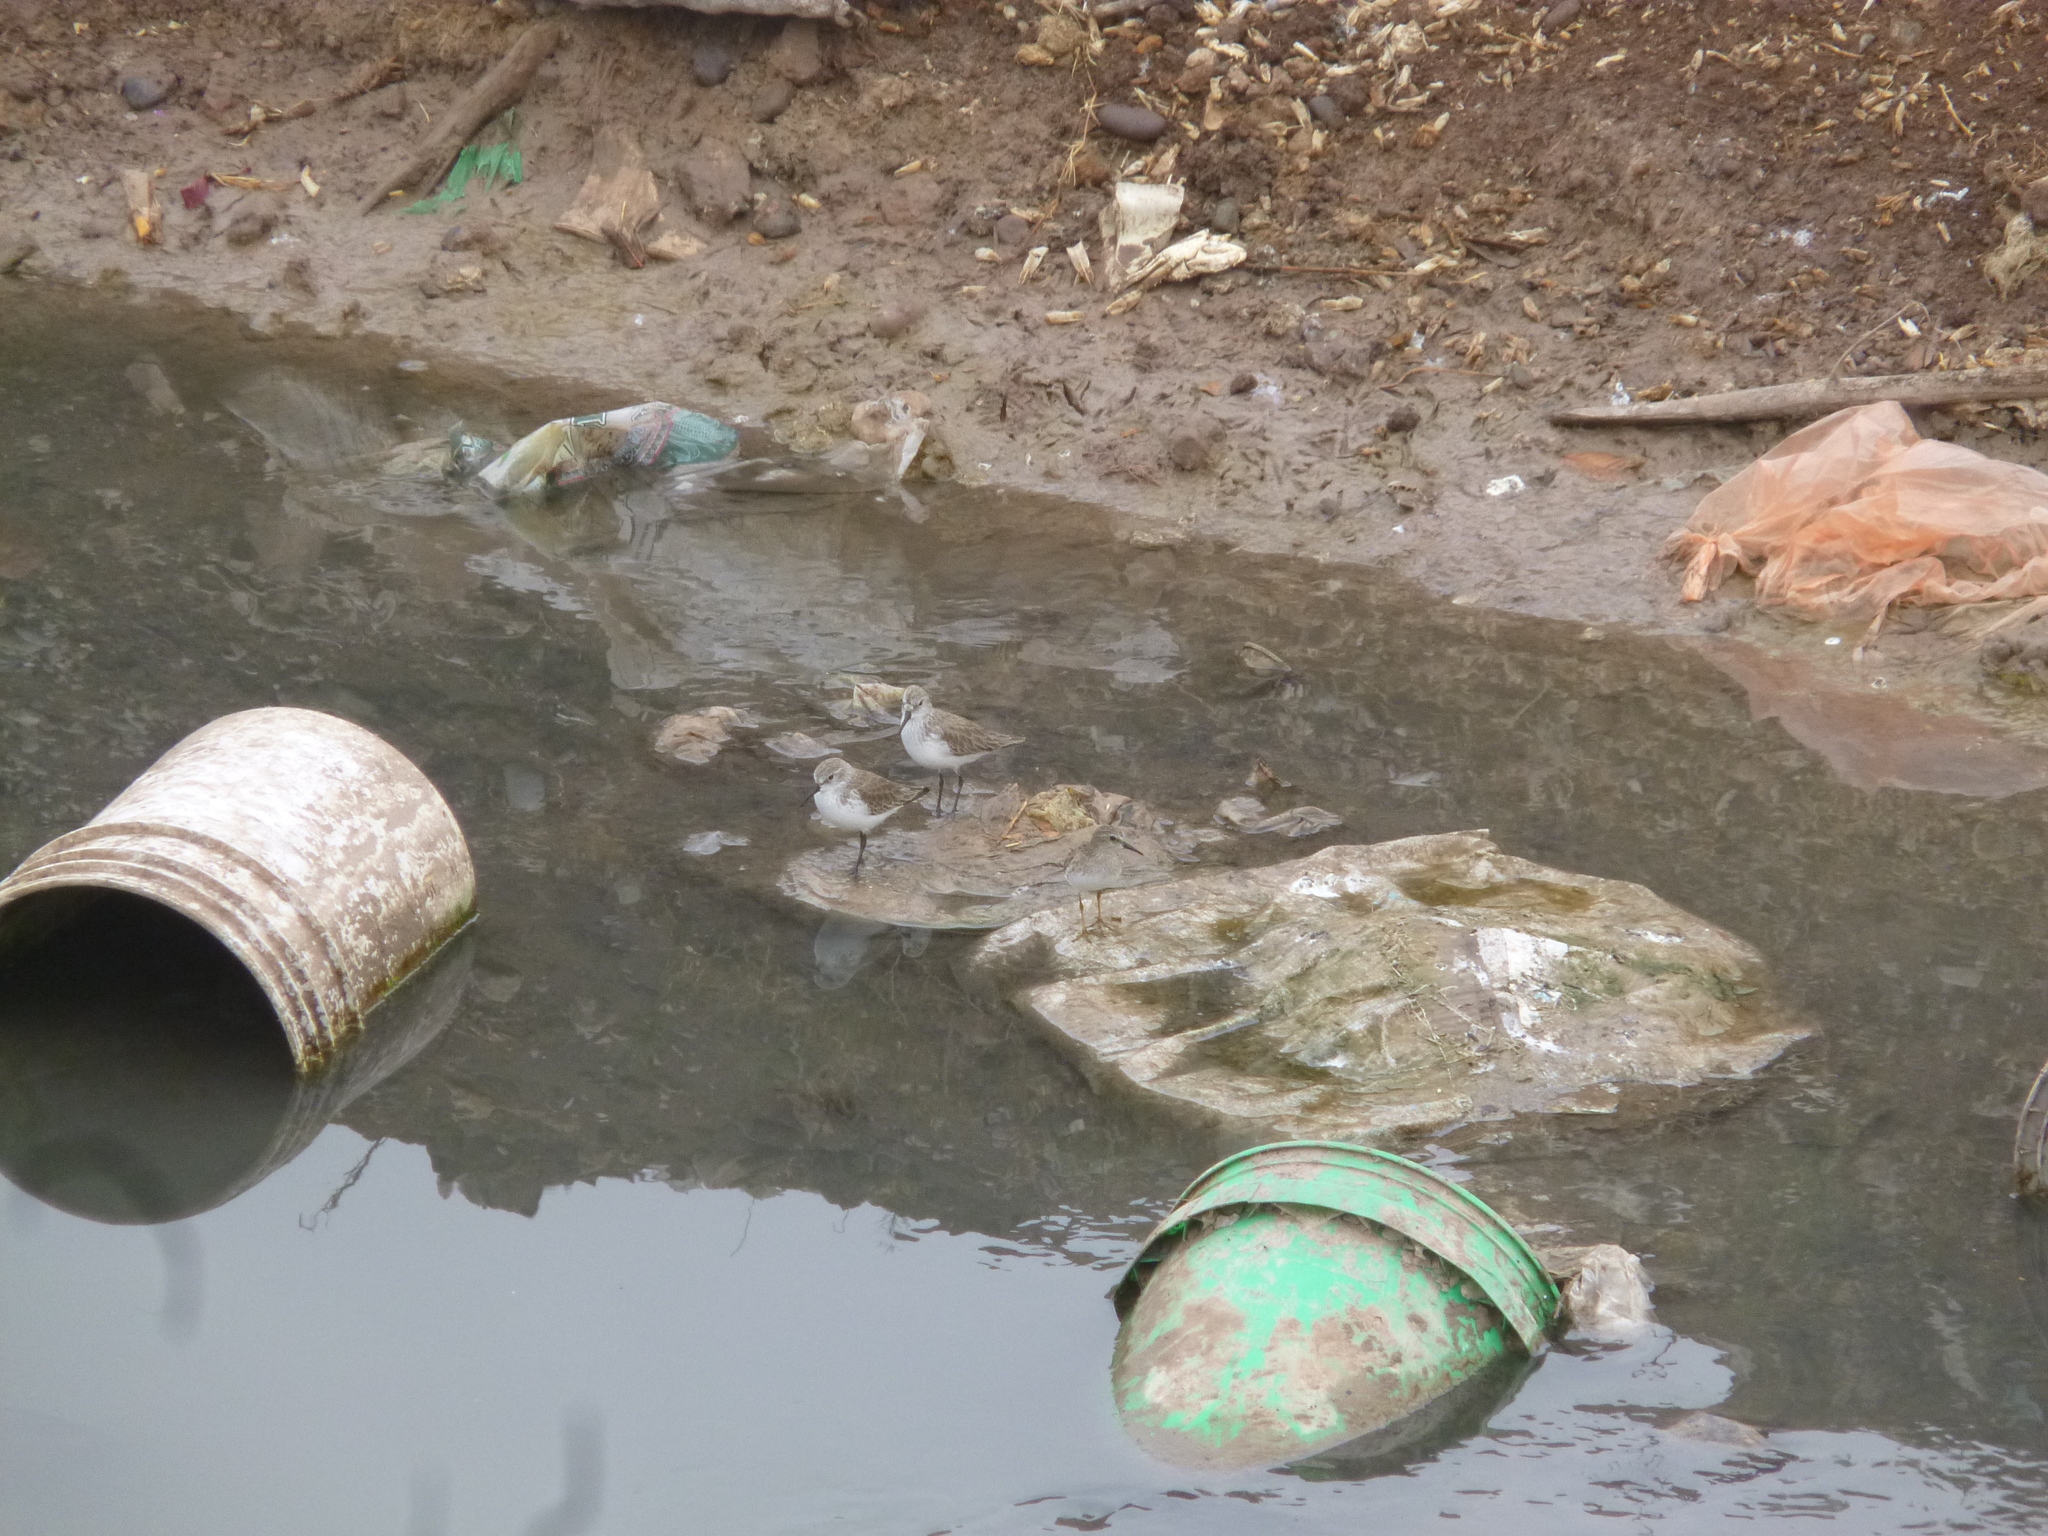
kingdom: Animalia
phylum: Chordata
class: Aves
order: Charadriiformes
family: Scolopacidae
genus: Calidris
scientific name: Calidris mauri
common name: Western sandpiper
